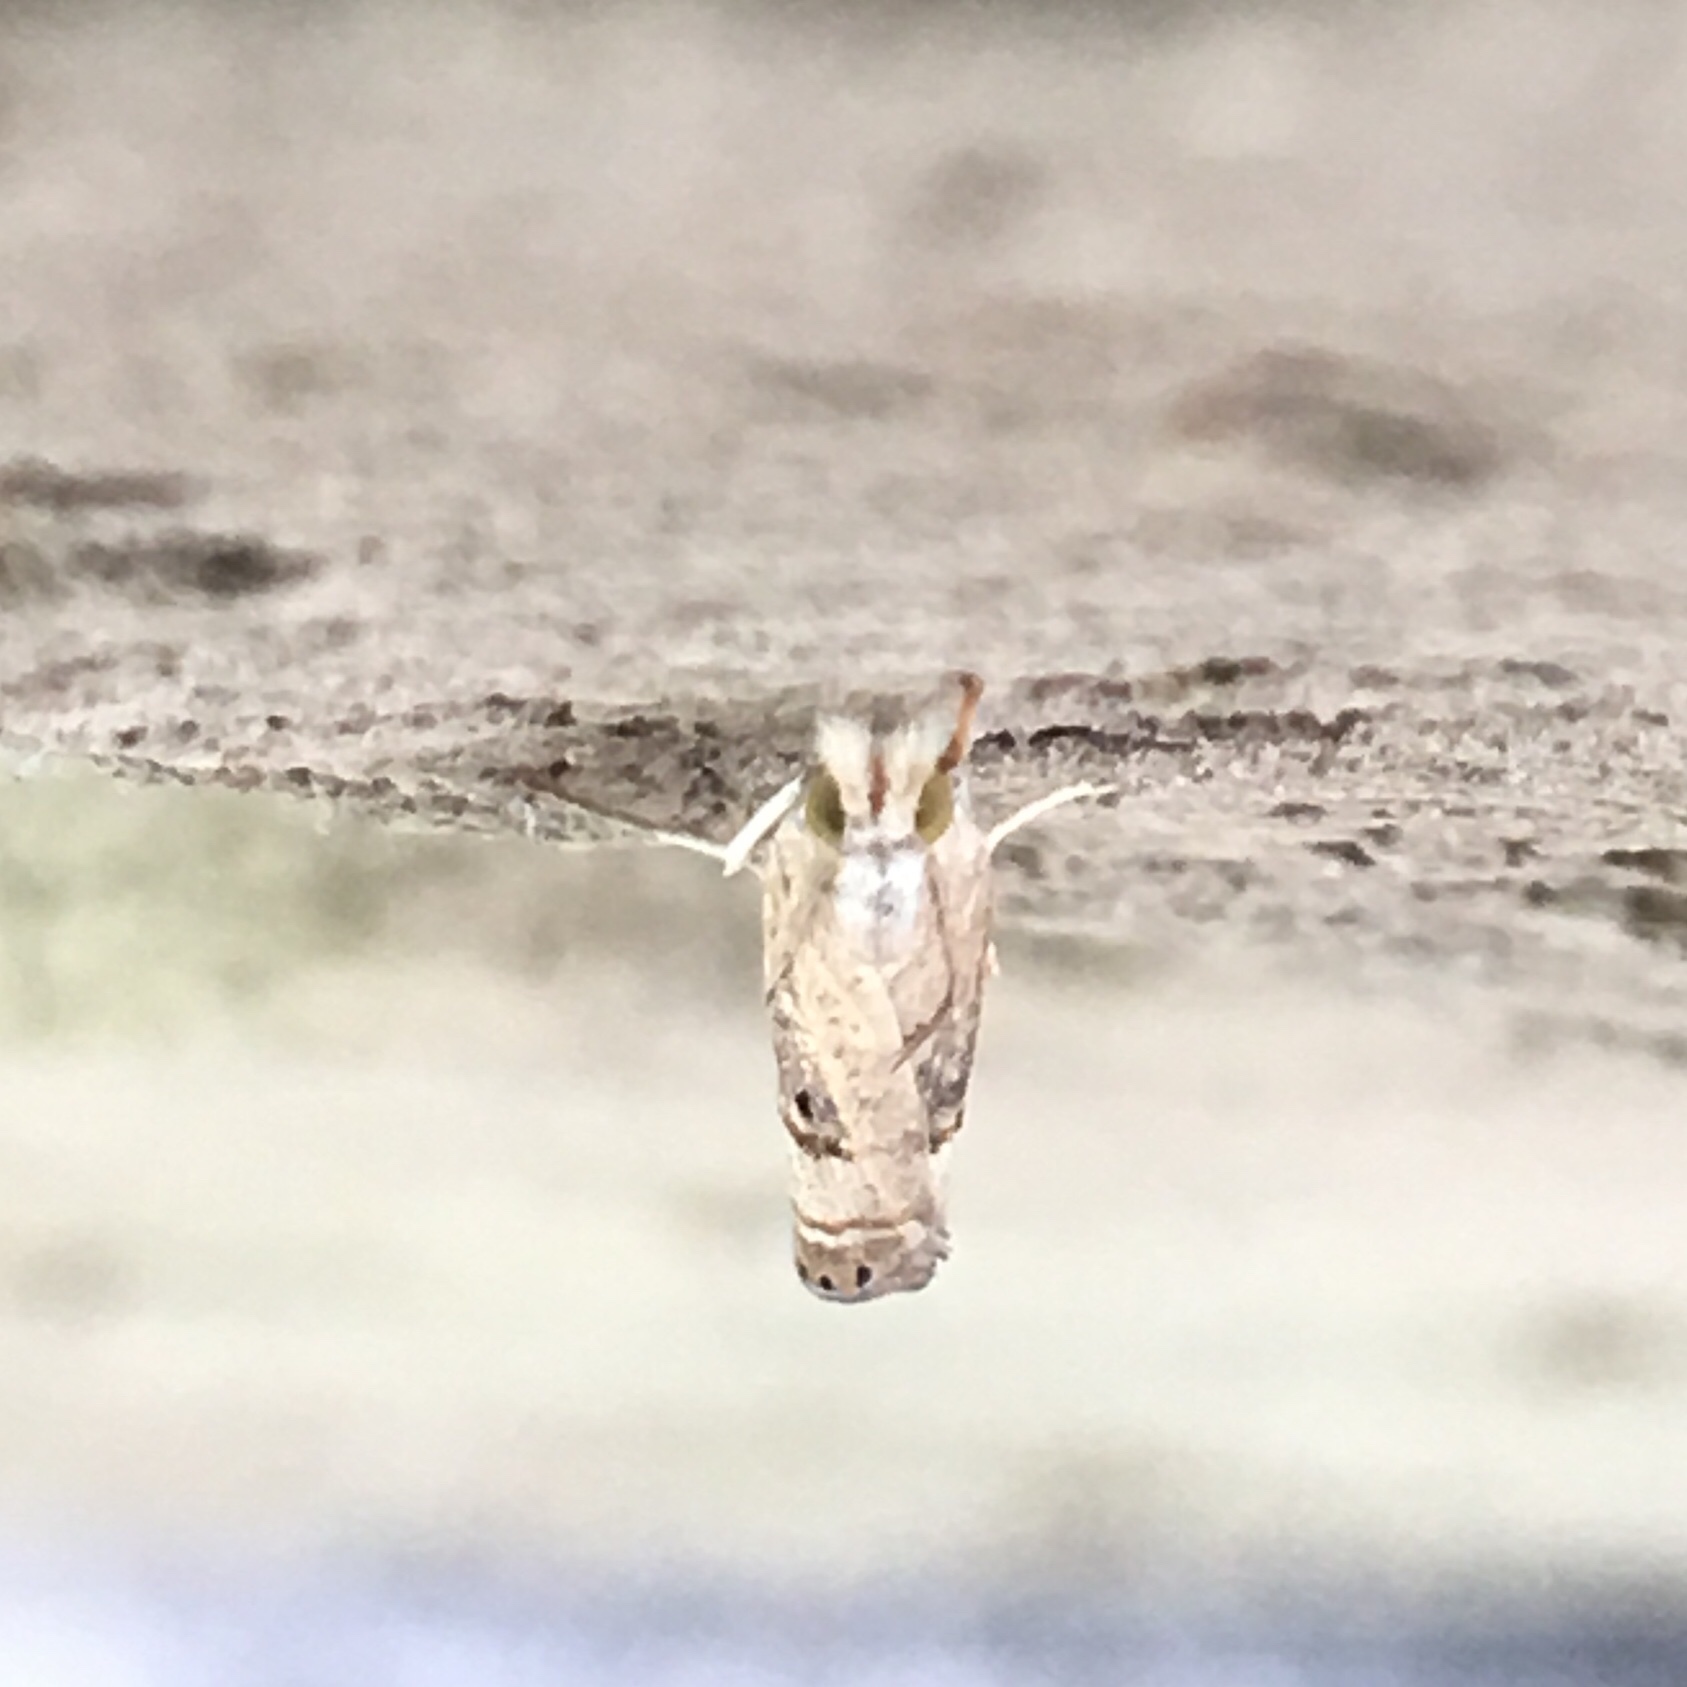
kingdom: Animalia
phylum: Arthropoda
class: Insecta
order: Lepidoptera
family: Crambidae
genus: Parapediasia
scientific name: Parapediasia teterellus
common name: Bluegrass webworm moth
